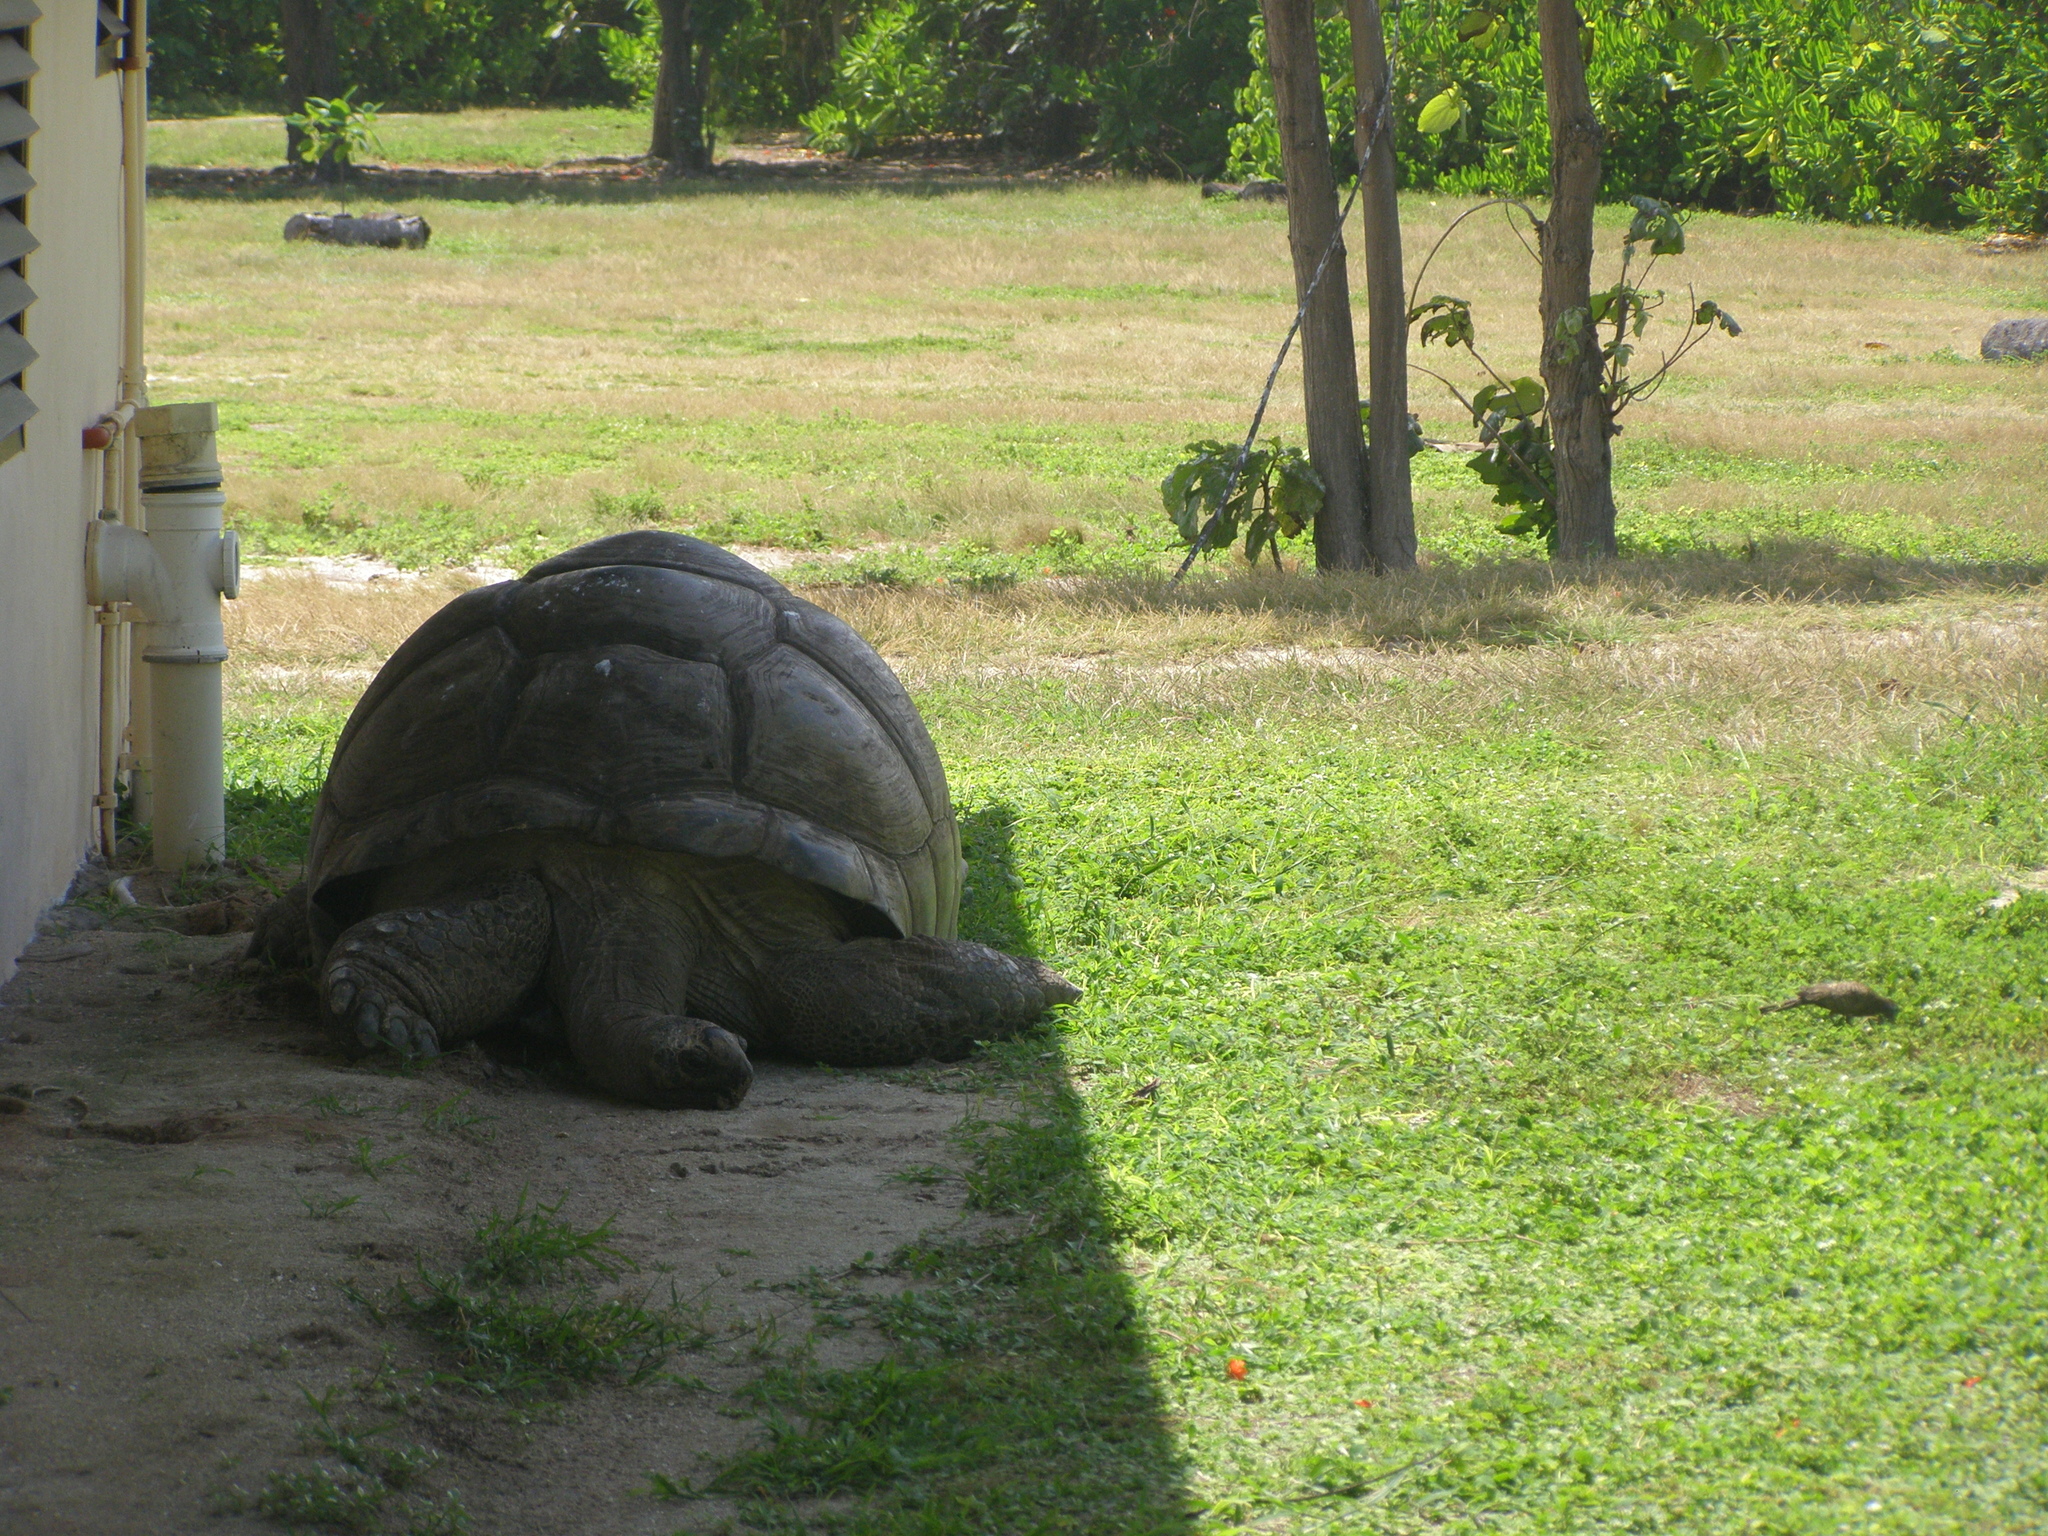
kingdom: Animalia
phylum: Chordata
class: Testudines
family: Testudinidae
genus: Aldabrachelys
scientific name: Aldabrachelys gigantea
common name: Aldabra giant tortoise
